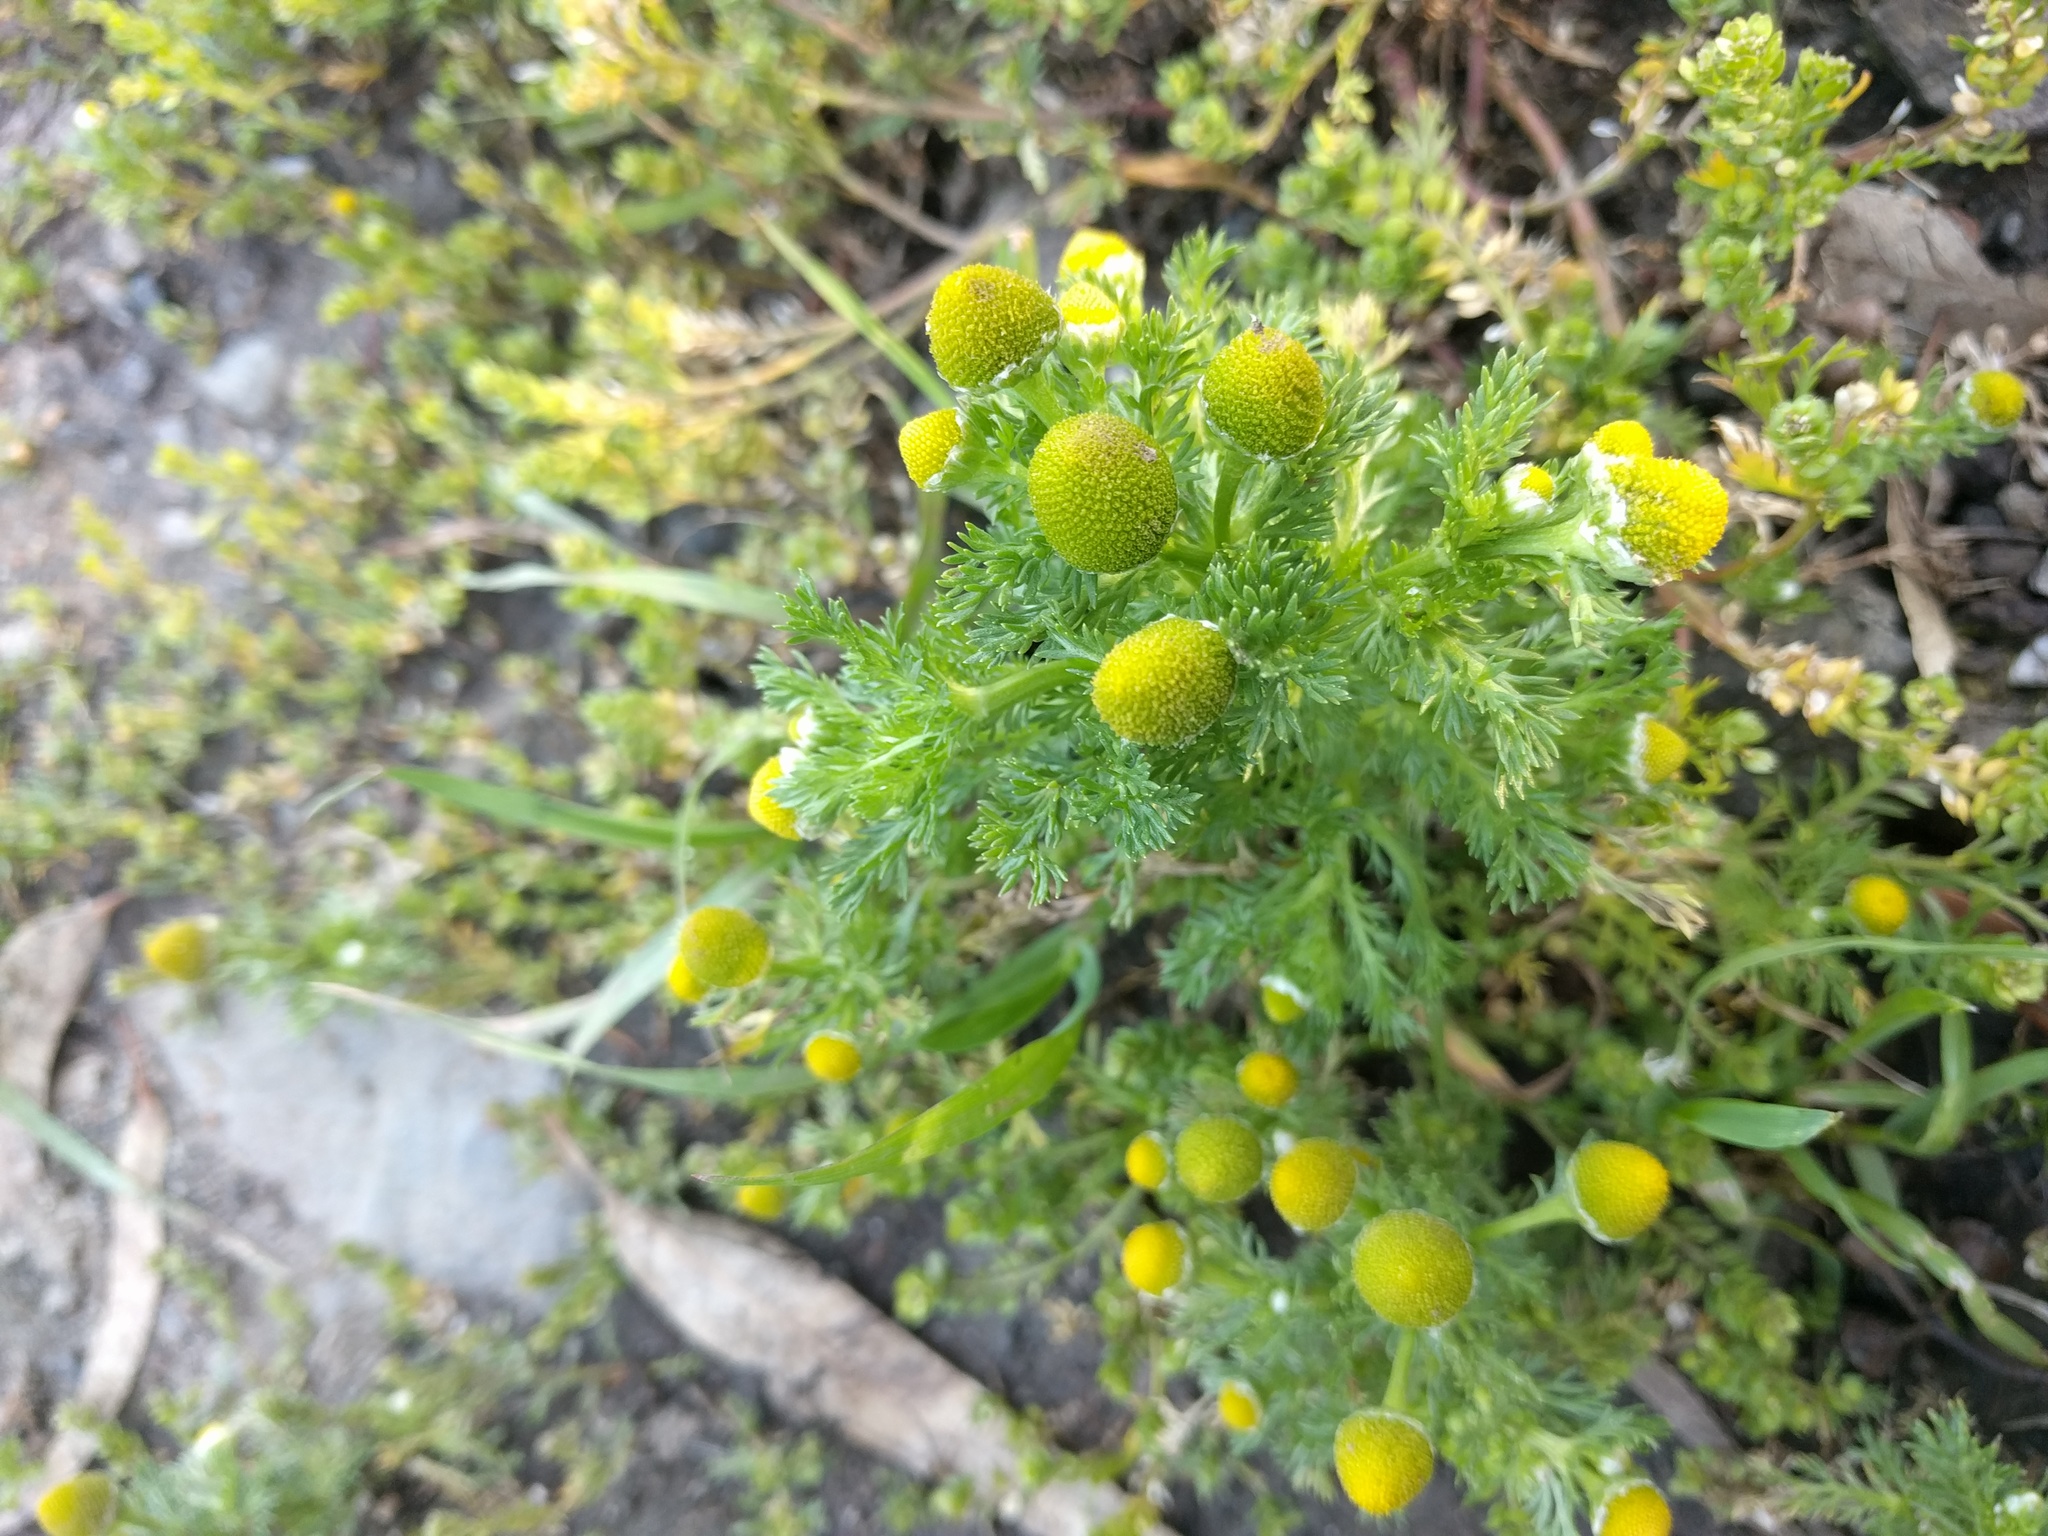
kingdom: Plantae
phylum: Tracheophyta
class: Magnoliopsida
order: Asterales
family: Asteraceae
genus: Matricaria
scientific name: Matricaria discoidea
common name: Disc mayweed
